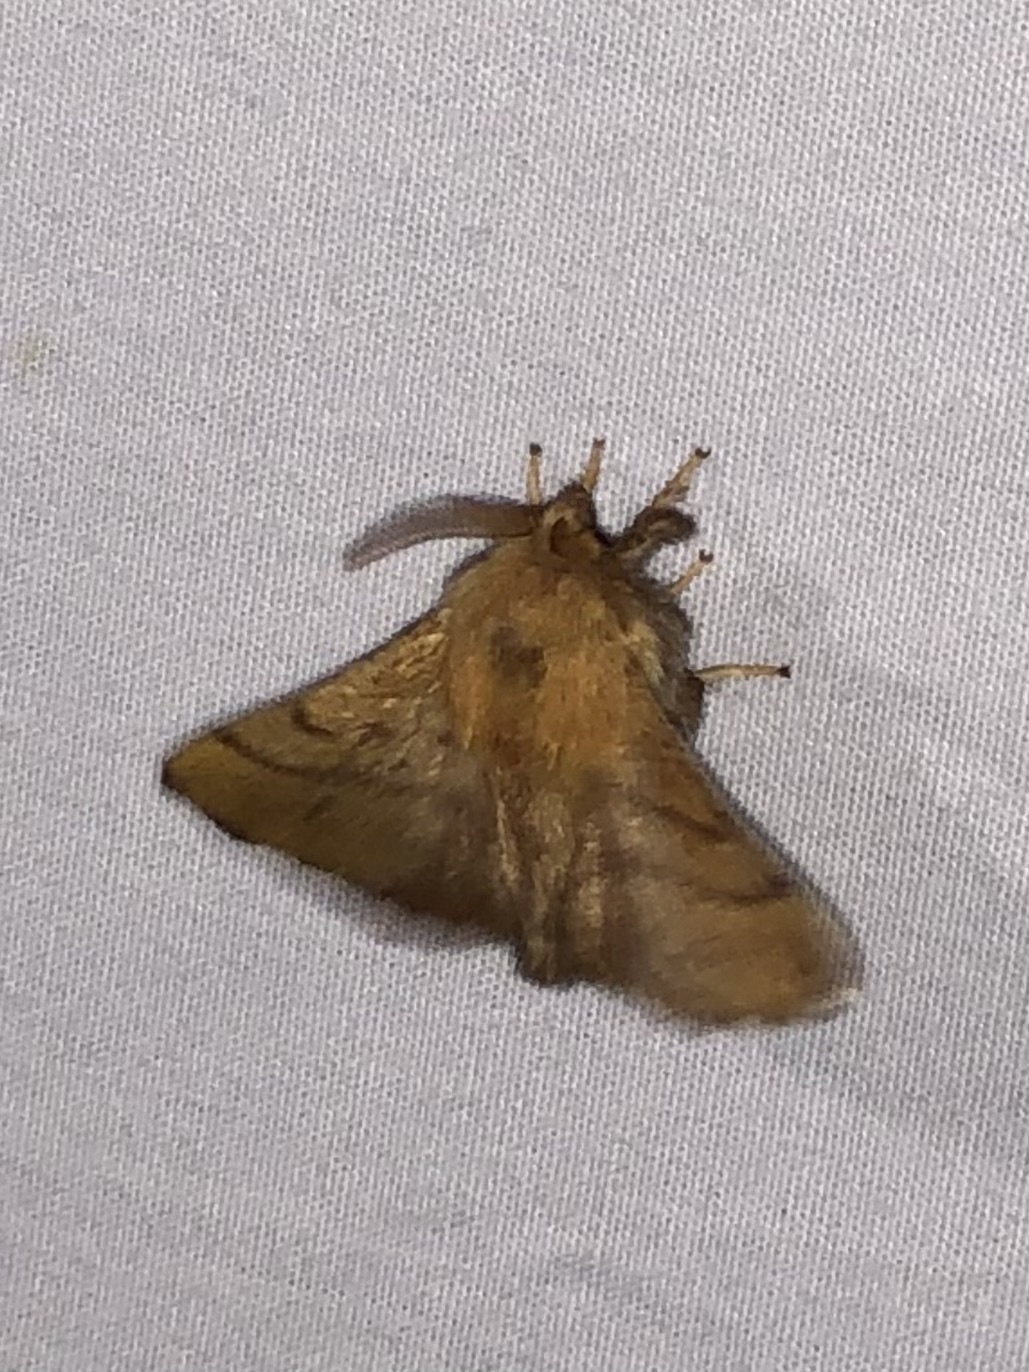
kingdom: Animalia
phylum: Arthropoda
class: Insecta
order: Lepidoptera
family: Lasiocampidae
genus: Malacosoma
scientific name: Malacosoma disstria
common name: Forest tent caterpillar
